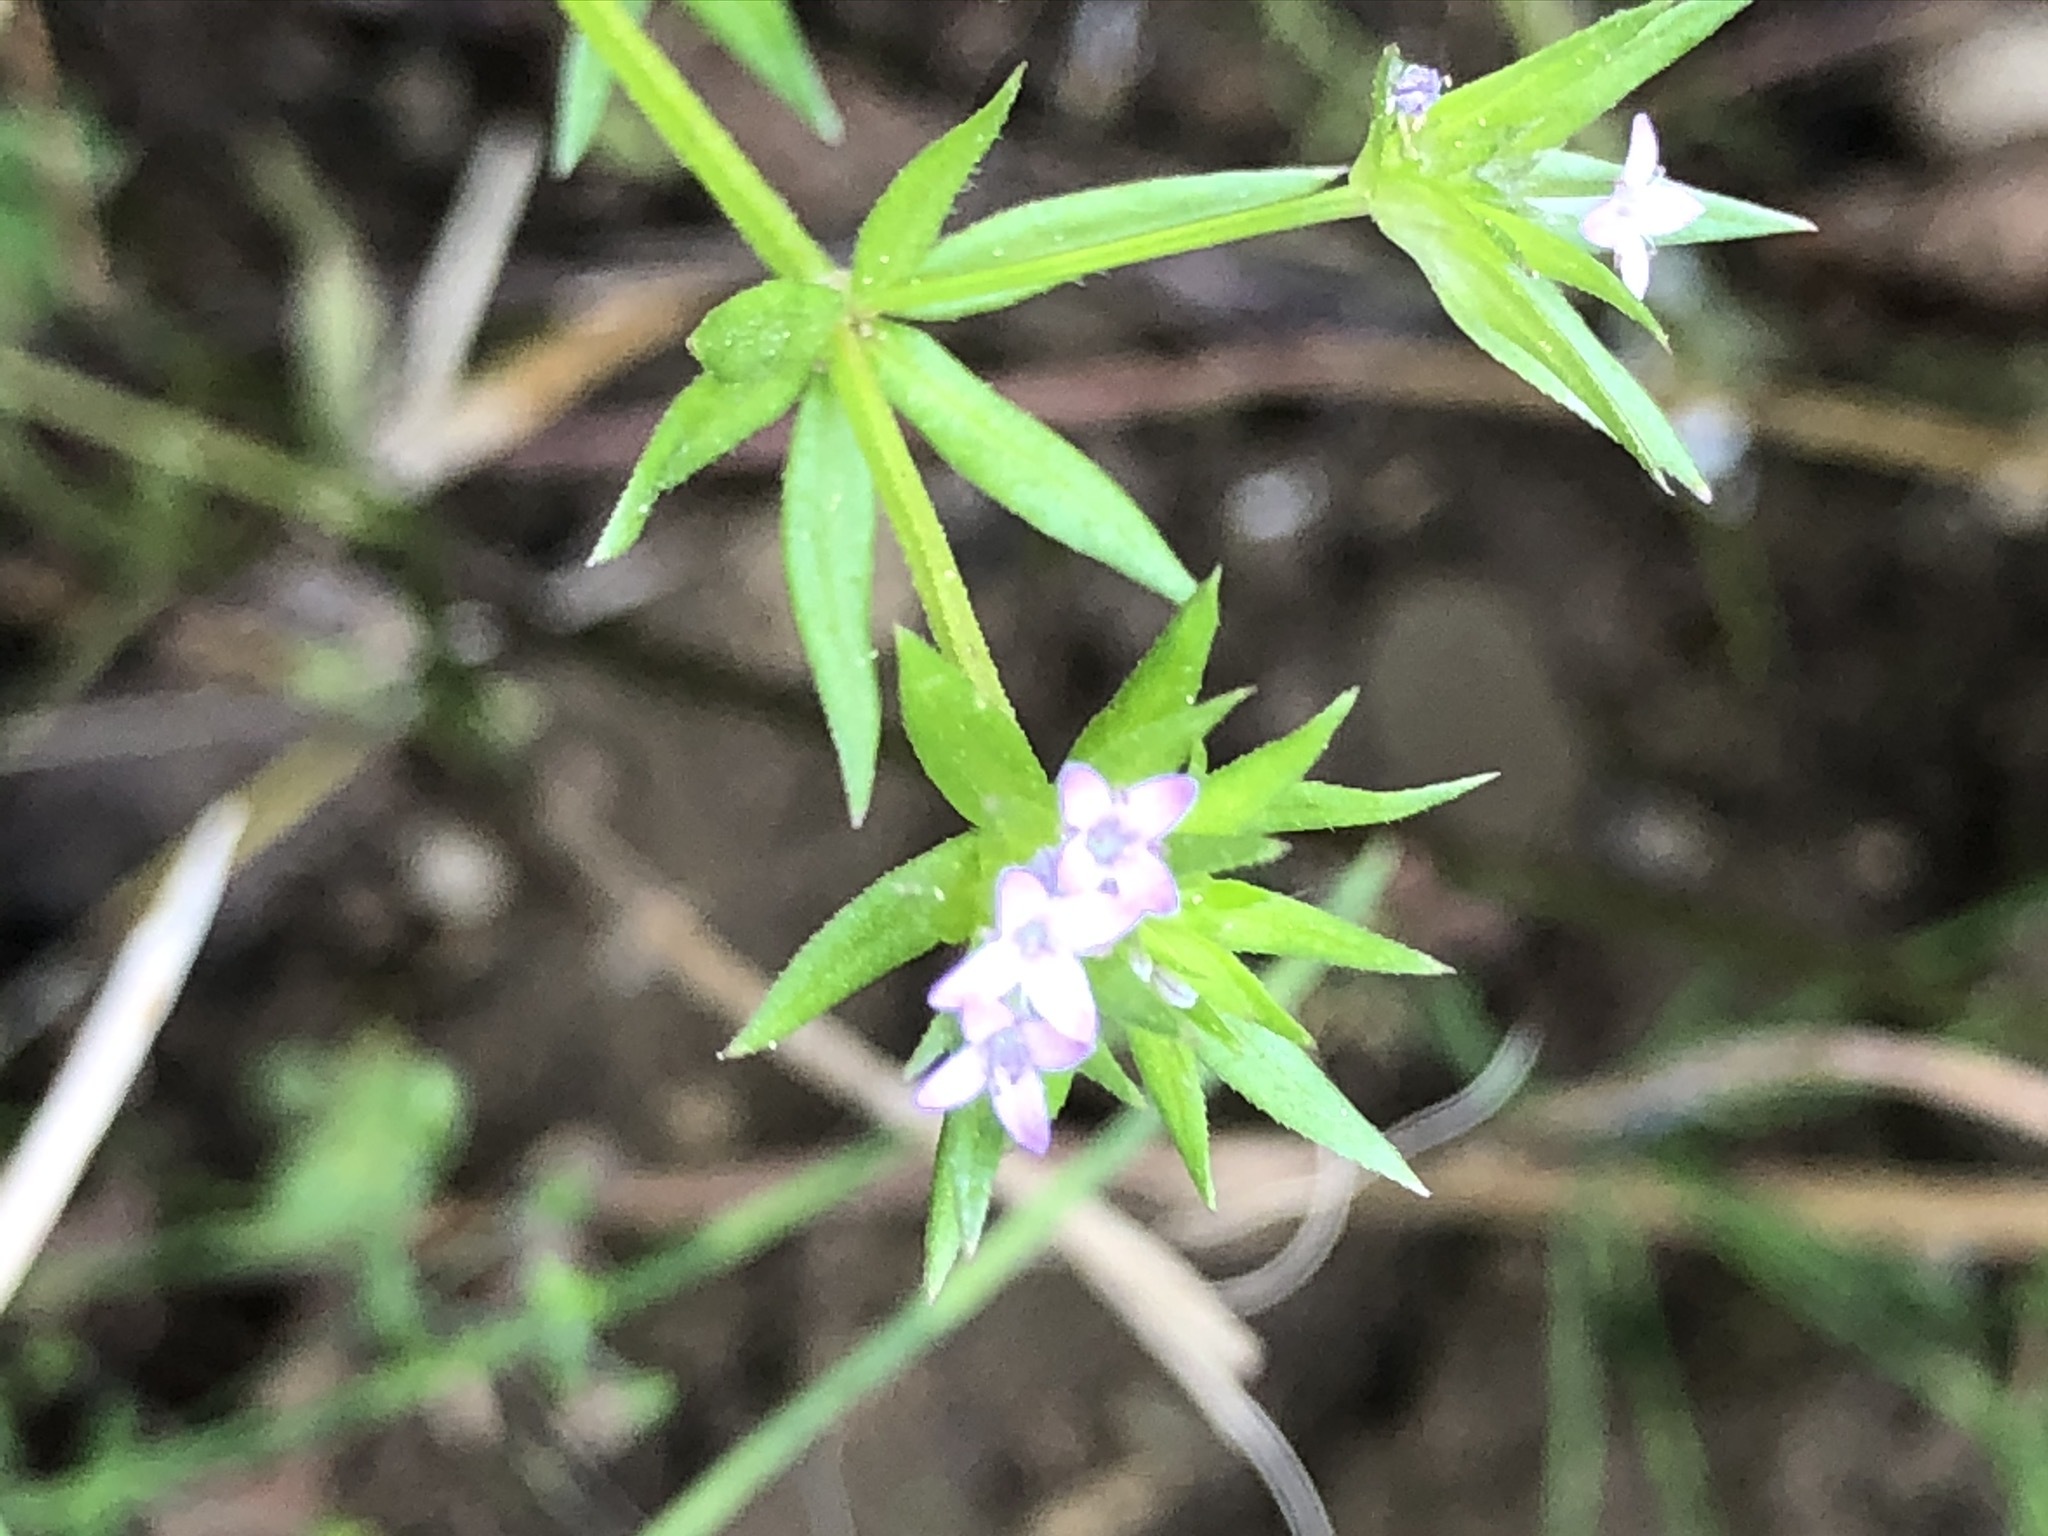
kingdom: Plantae
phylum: Tracheophyta
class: Magnoliopsida
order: Gentianales
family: Rubiaceae
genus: Sherardia
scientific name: Sherardia arvensis
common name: Field madder
